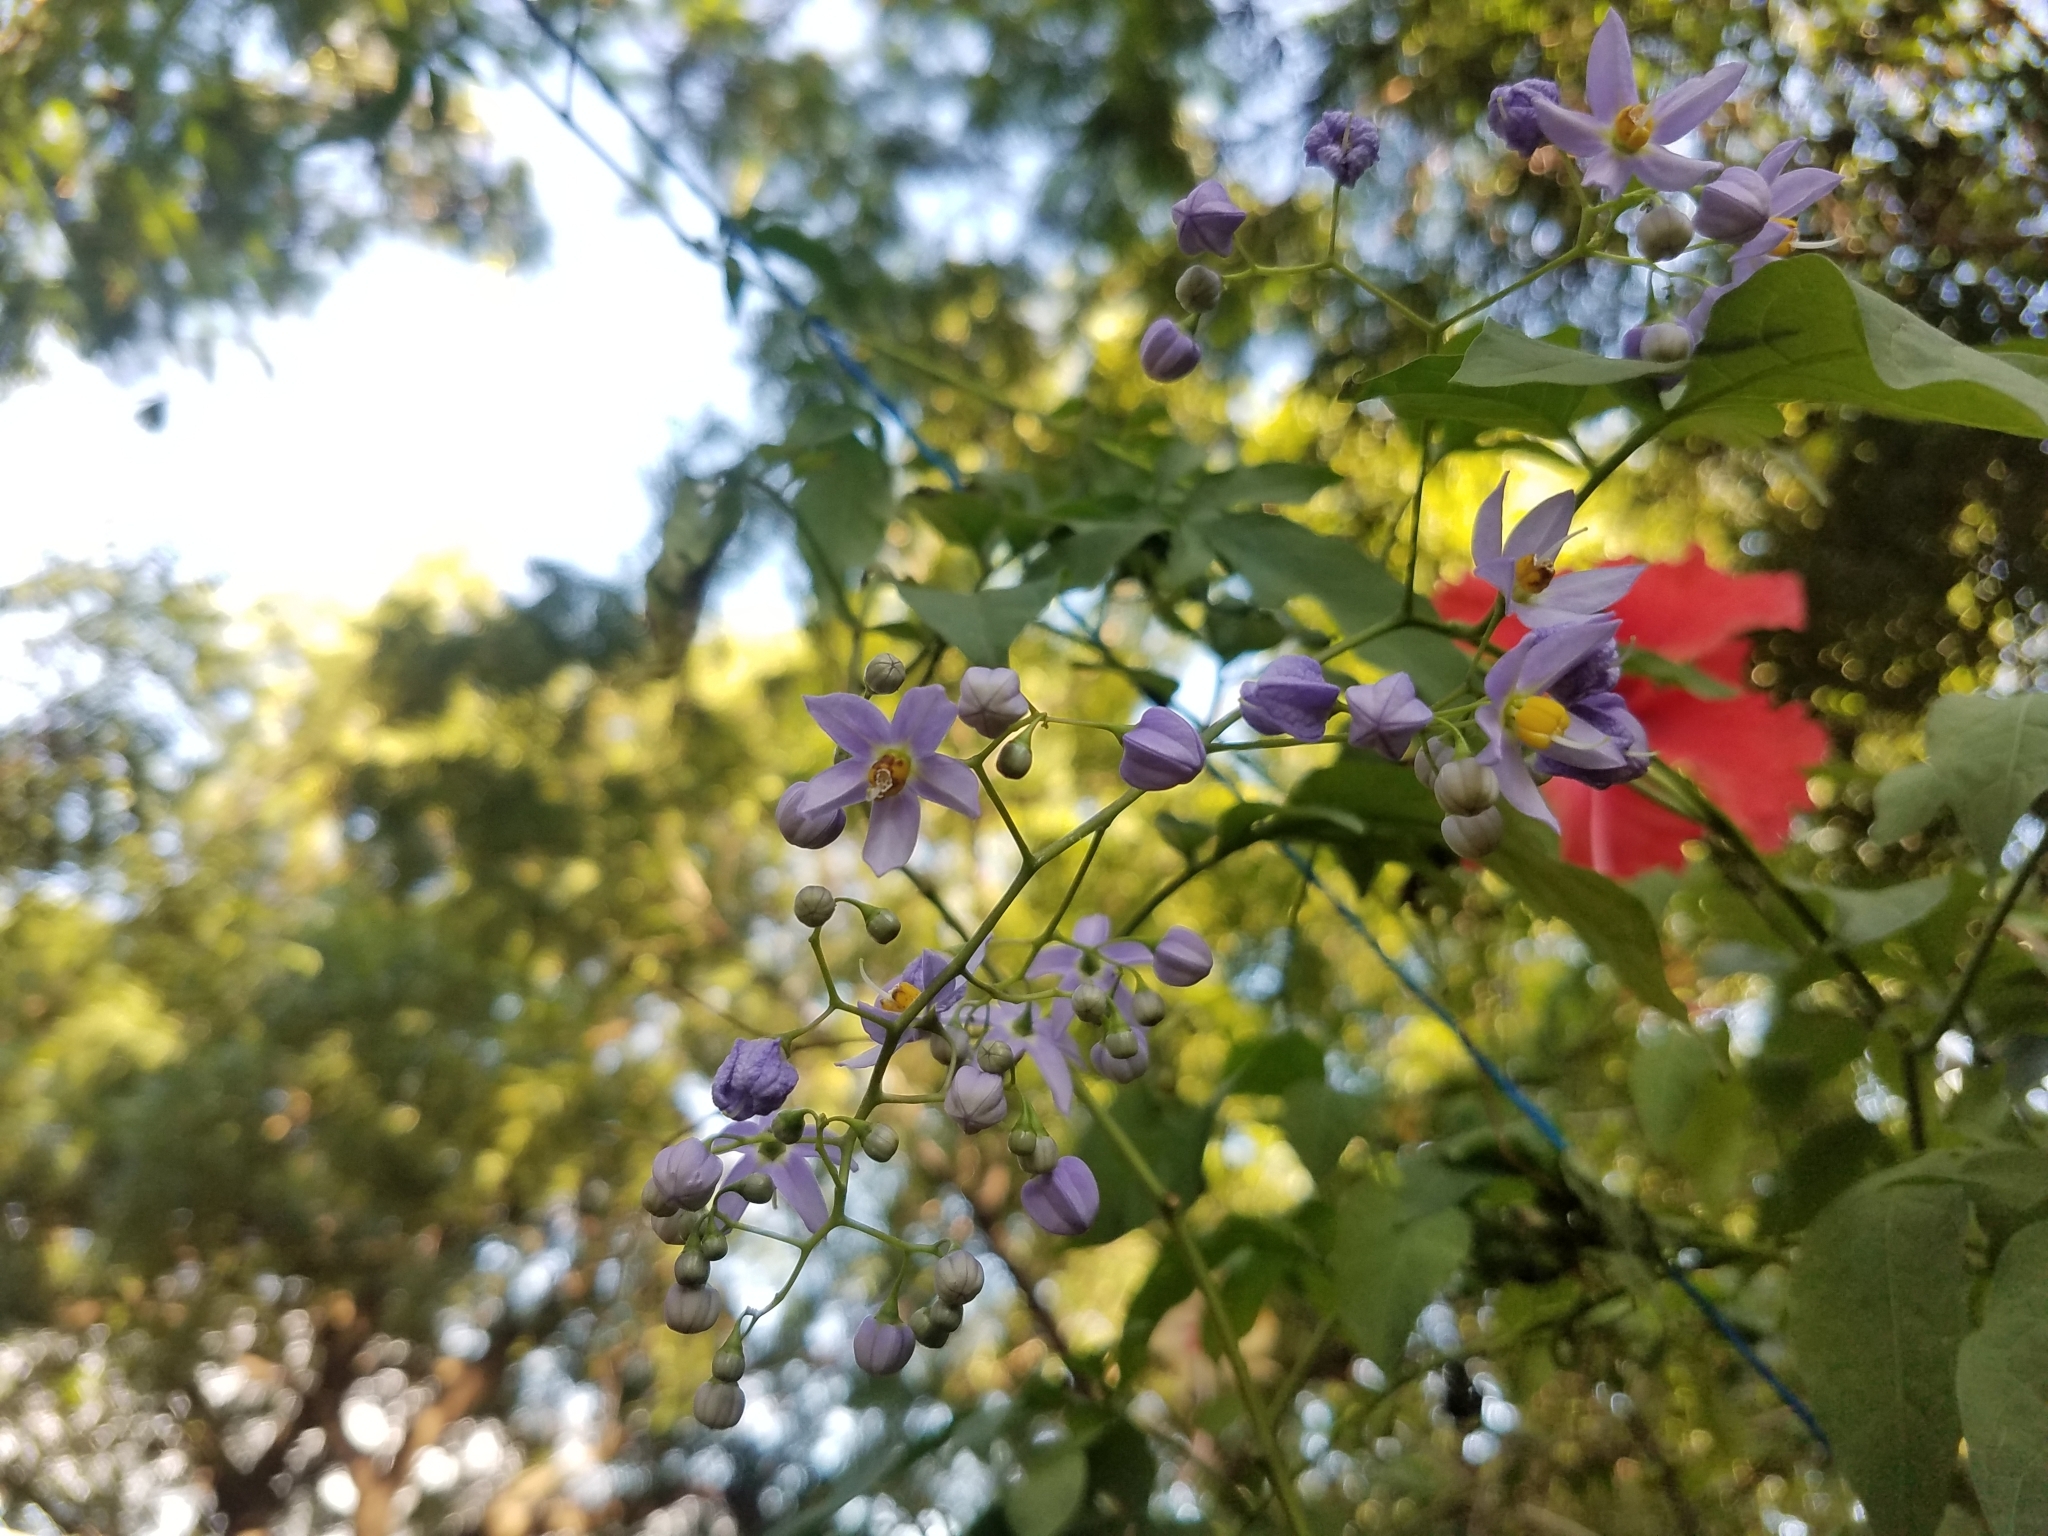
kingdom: Plantae
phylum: Tracheophyta
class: Magnoliopsida
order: Solanales
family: Solanaceae
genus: Solanum
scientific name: Solanum seaforthianum
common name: Brazilian nightshade
